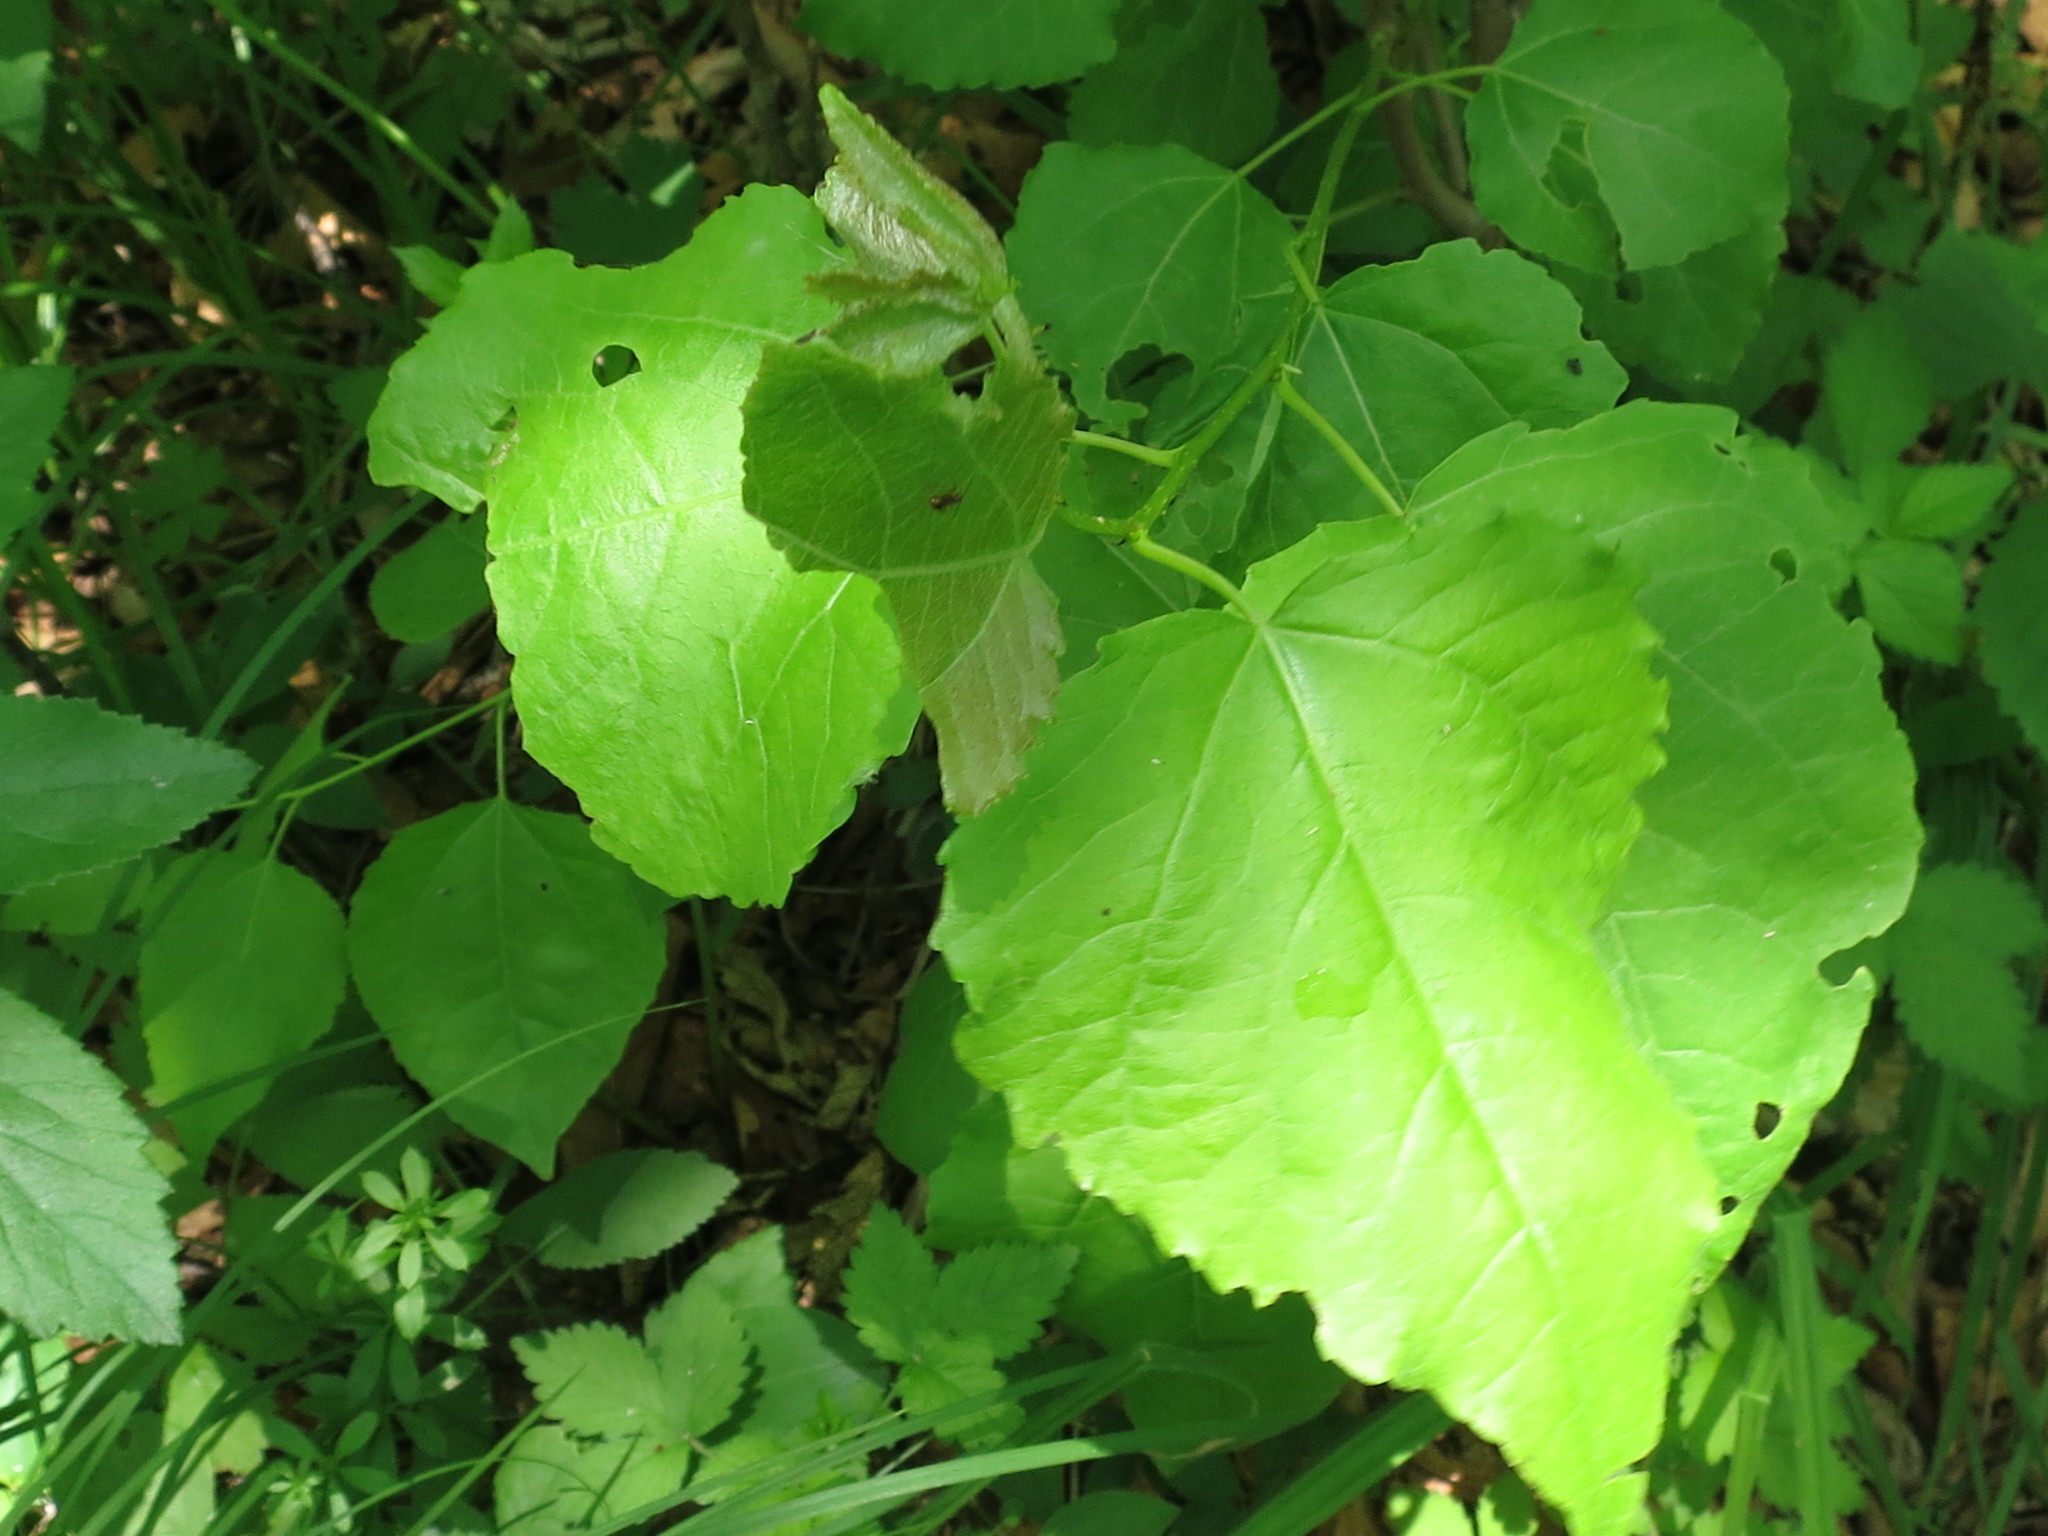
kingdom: Plantae
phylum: Tracheophyta
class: Magnoliopsida
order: Malpighiales
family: Salicaceae
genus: Populus
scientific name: Populus tremula
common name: European aspen
